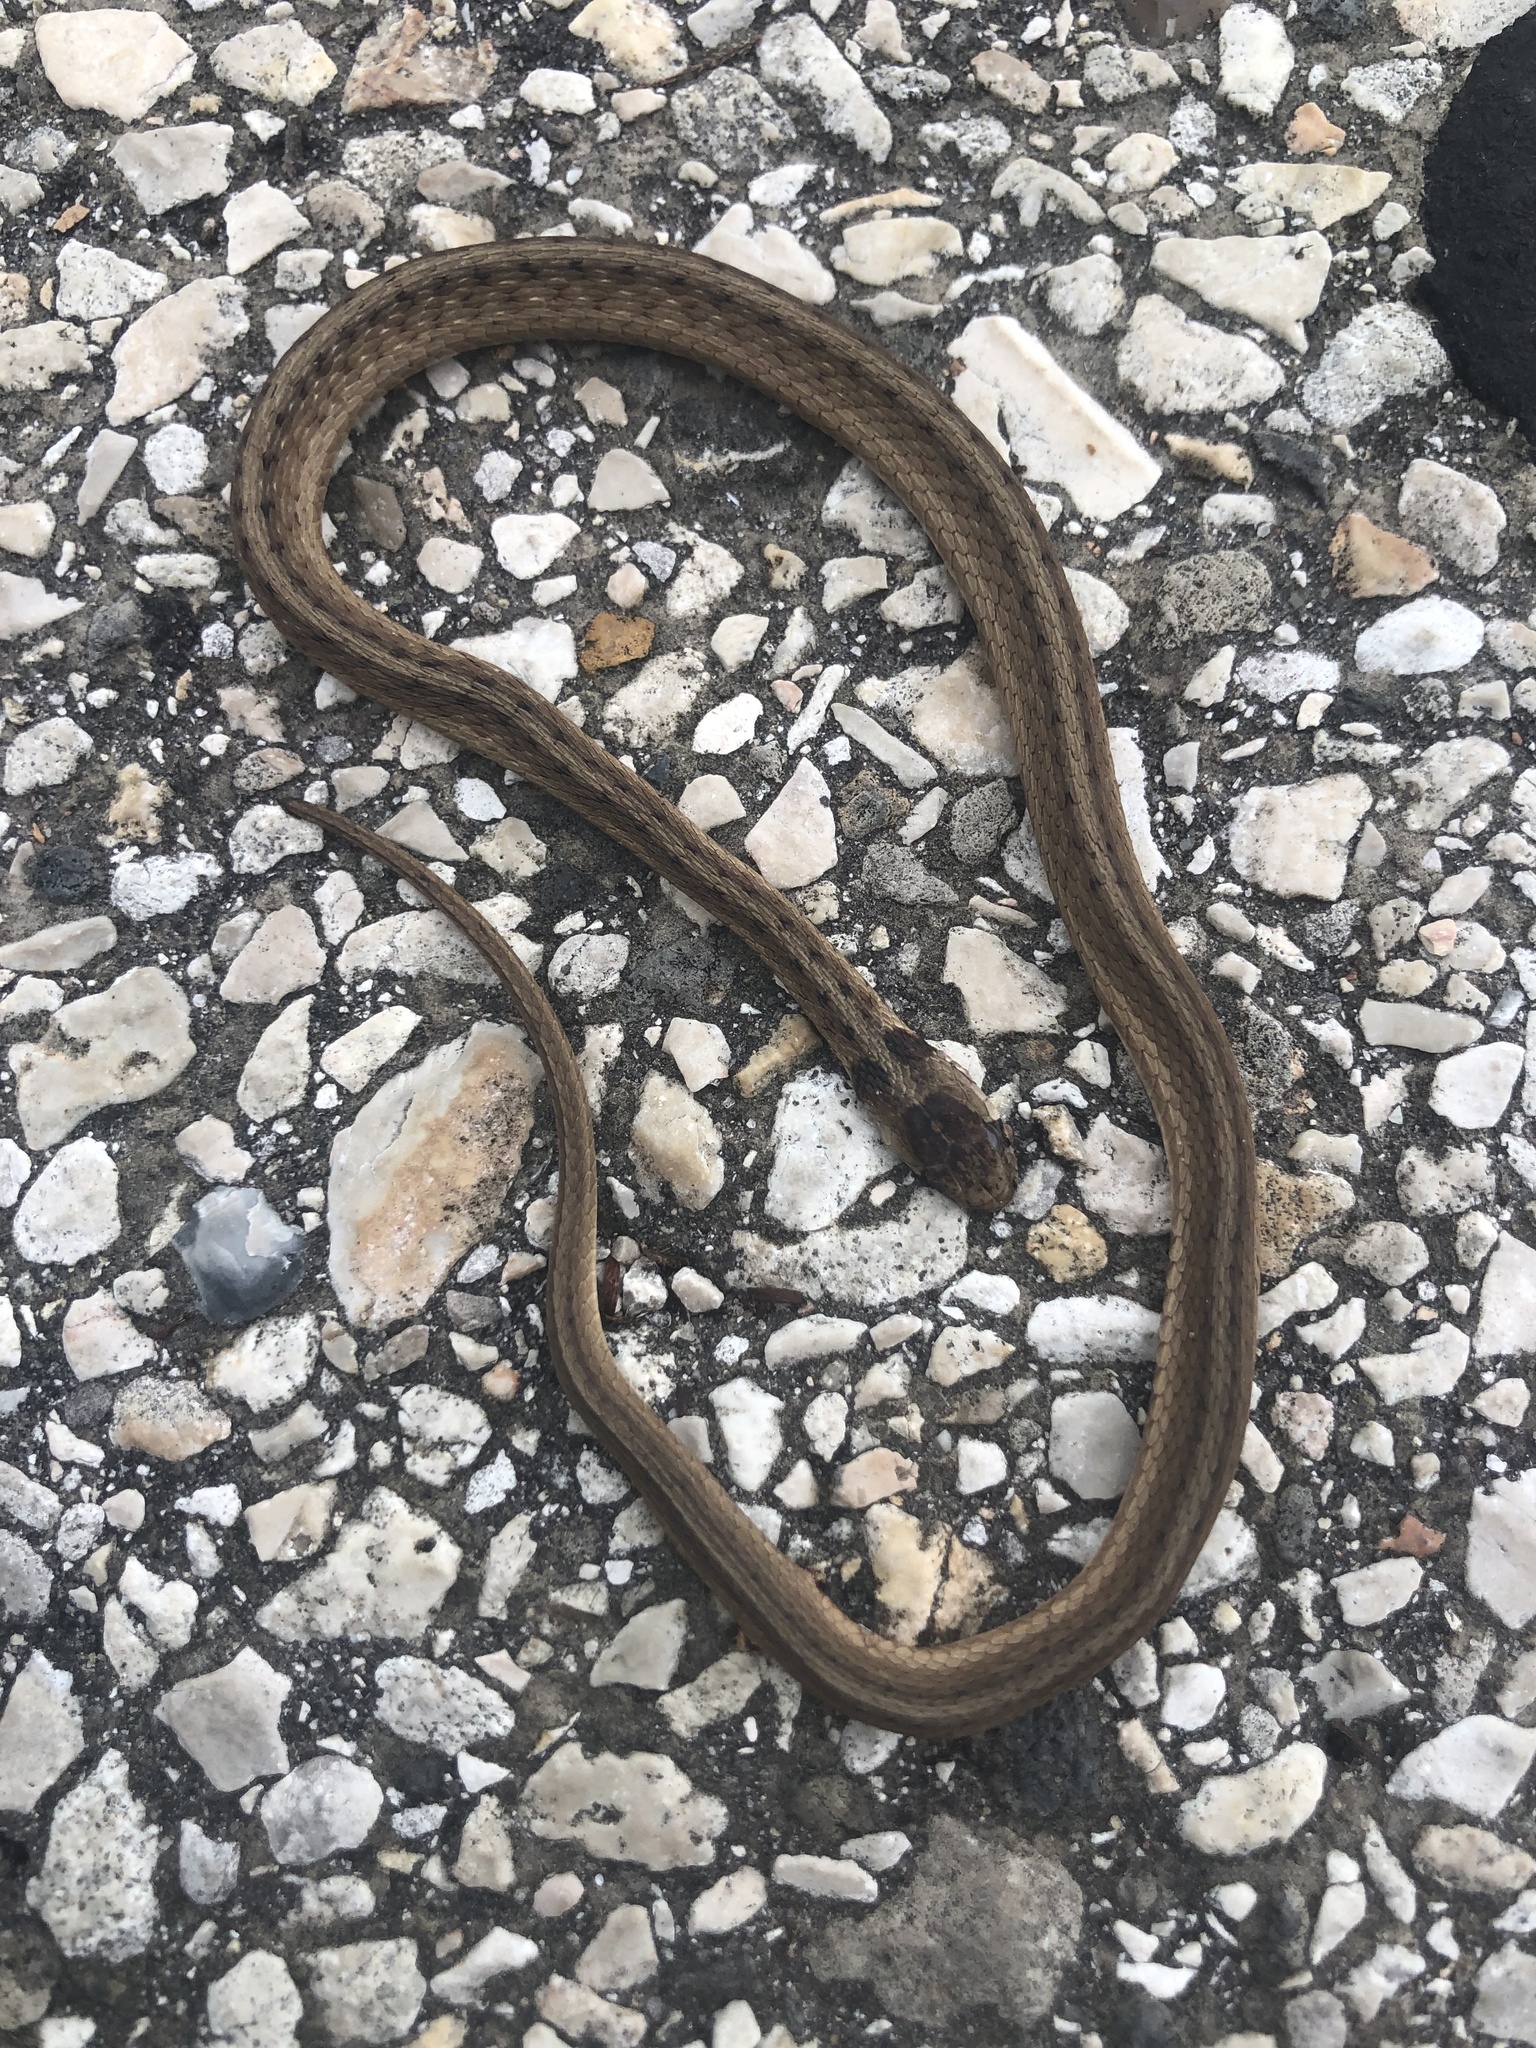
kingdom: Animalia
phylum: Chordata
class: Squamata
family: Colubridae
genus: Storeria
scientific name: Storeria dekayi
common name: (dekay’s) brown snake
